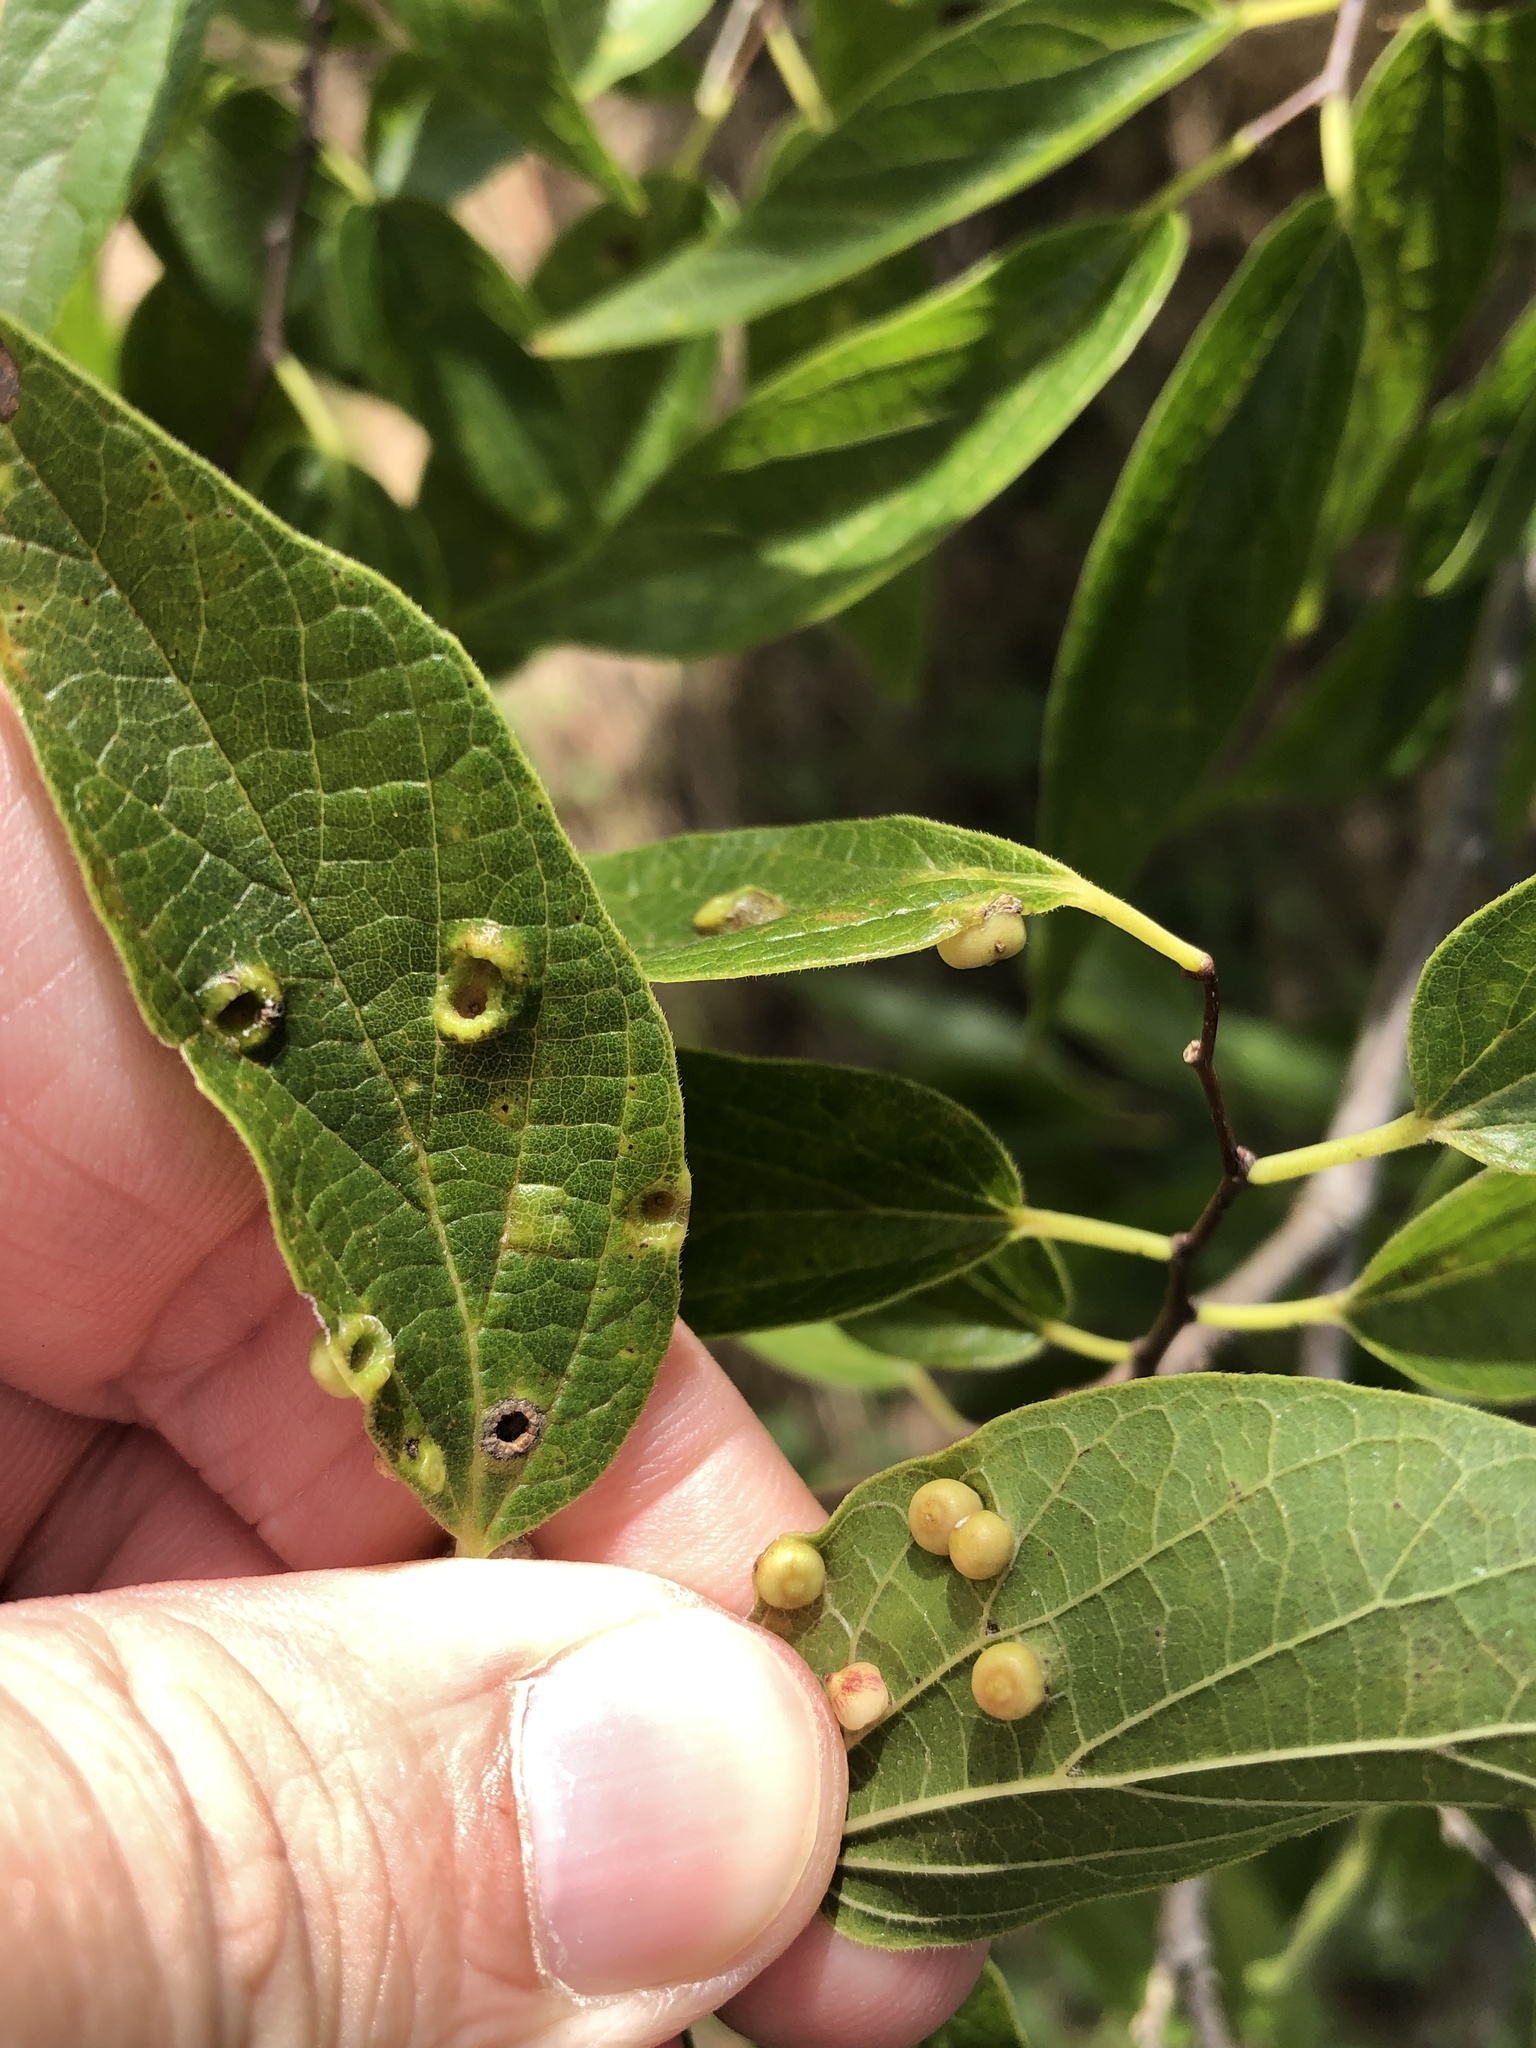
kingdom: Animalia
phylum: Arthropoda
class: Insecta
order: Hemiptera
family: Aphalaridae
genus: Pachypsylla
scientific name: Pachypsylla celtidismamma
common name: Hackberry nipplegall psyllid
